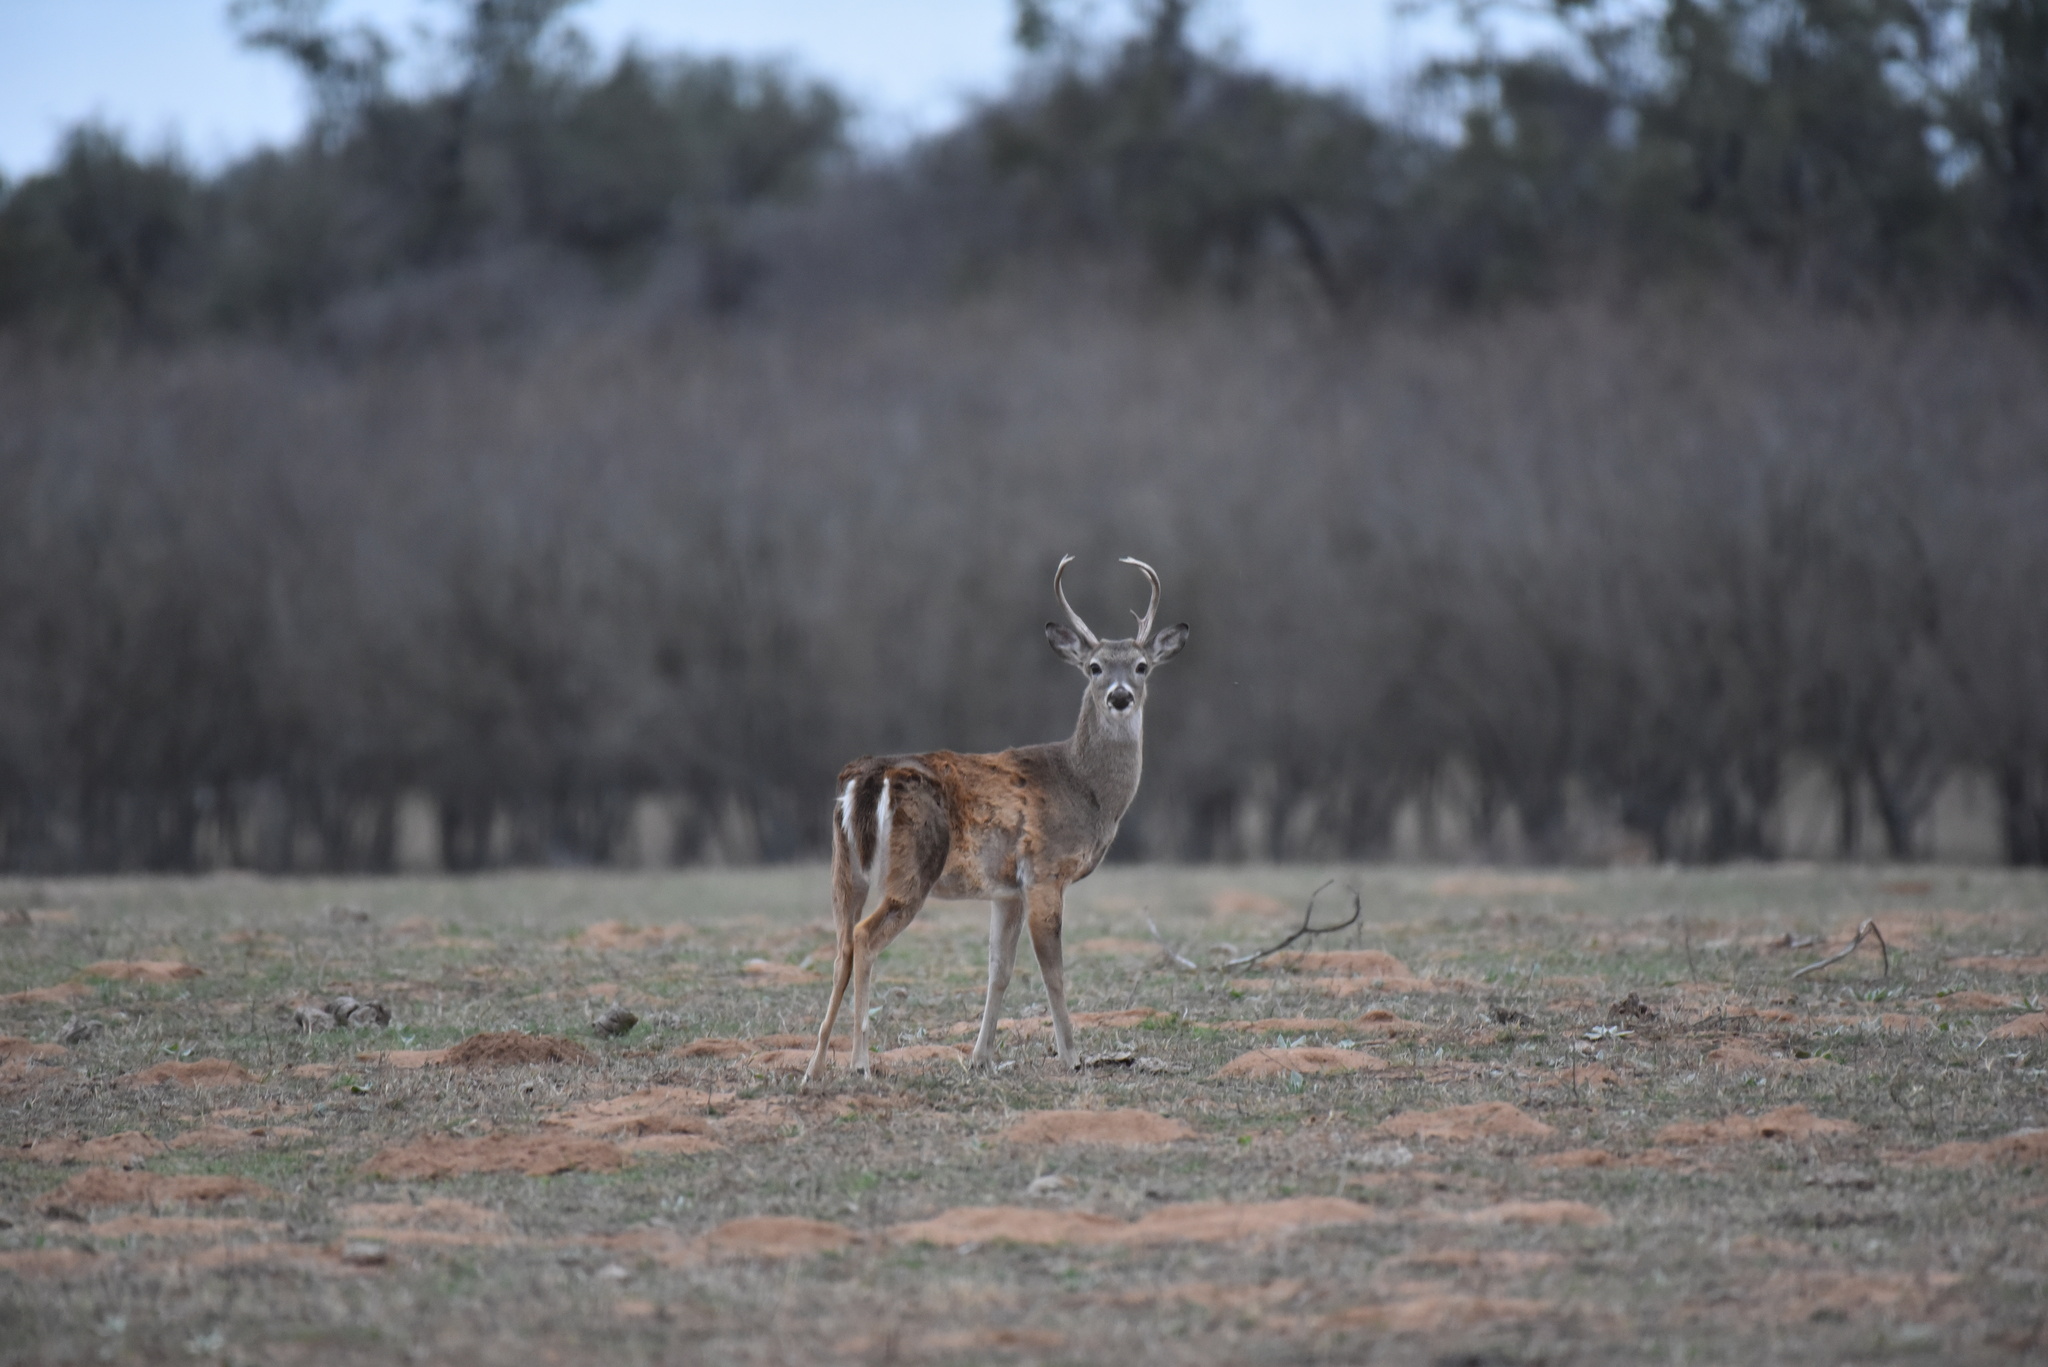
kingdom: Animalia
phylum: Chordata
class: Mammalia
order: Artiodactyla
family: Cervidae
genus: Odocoileus
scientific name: Odocoileus virginianus
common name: White-tailed deer
